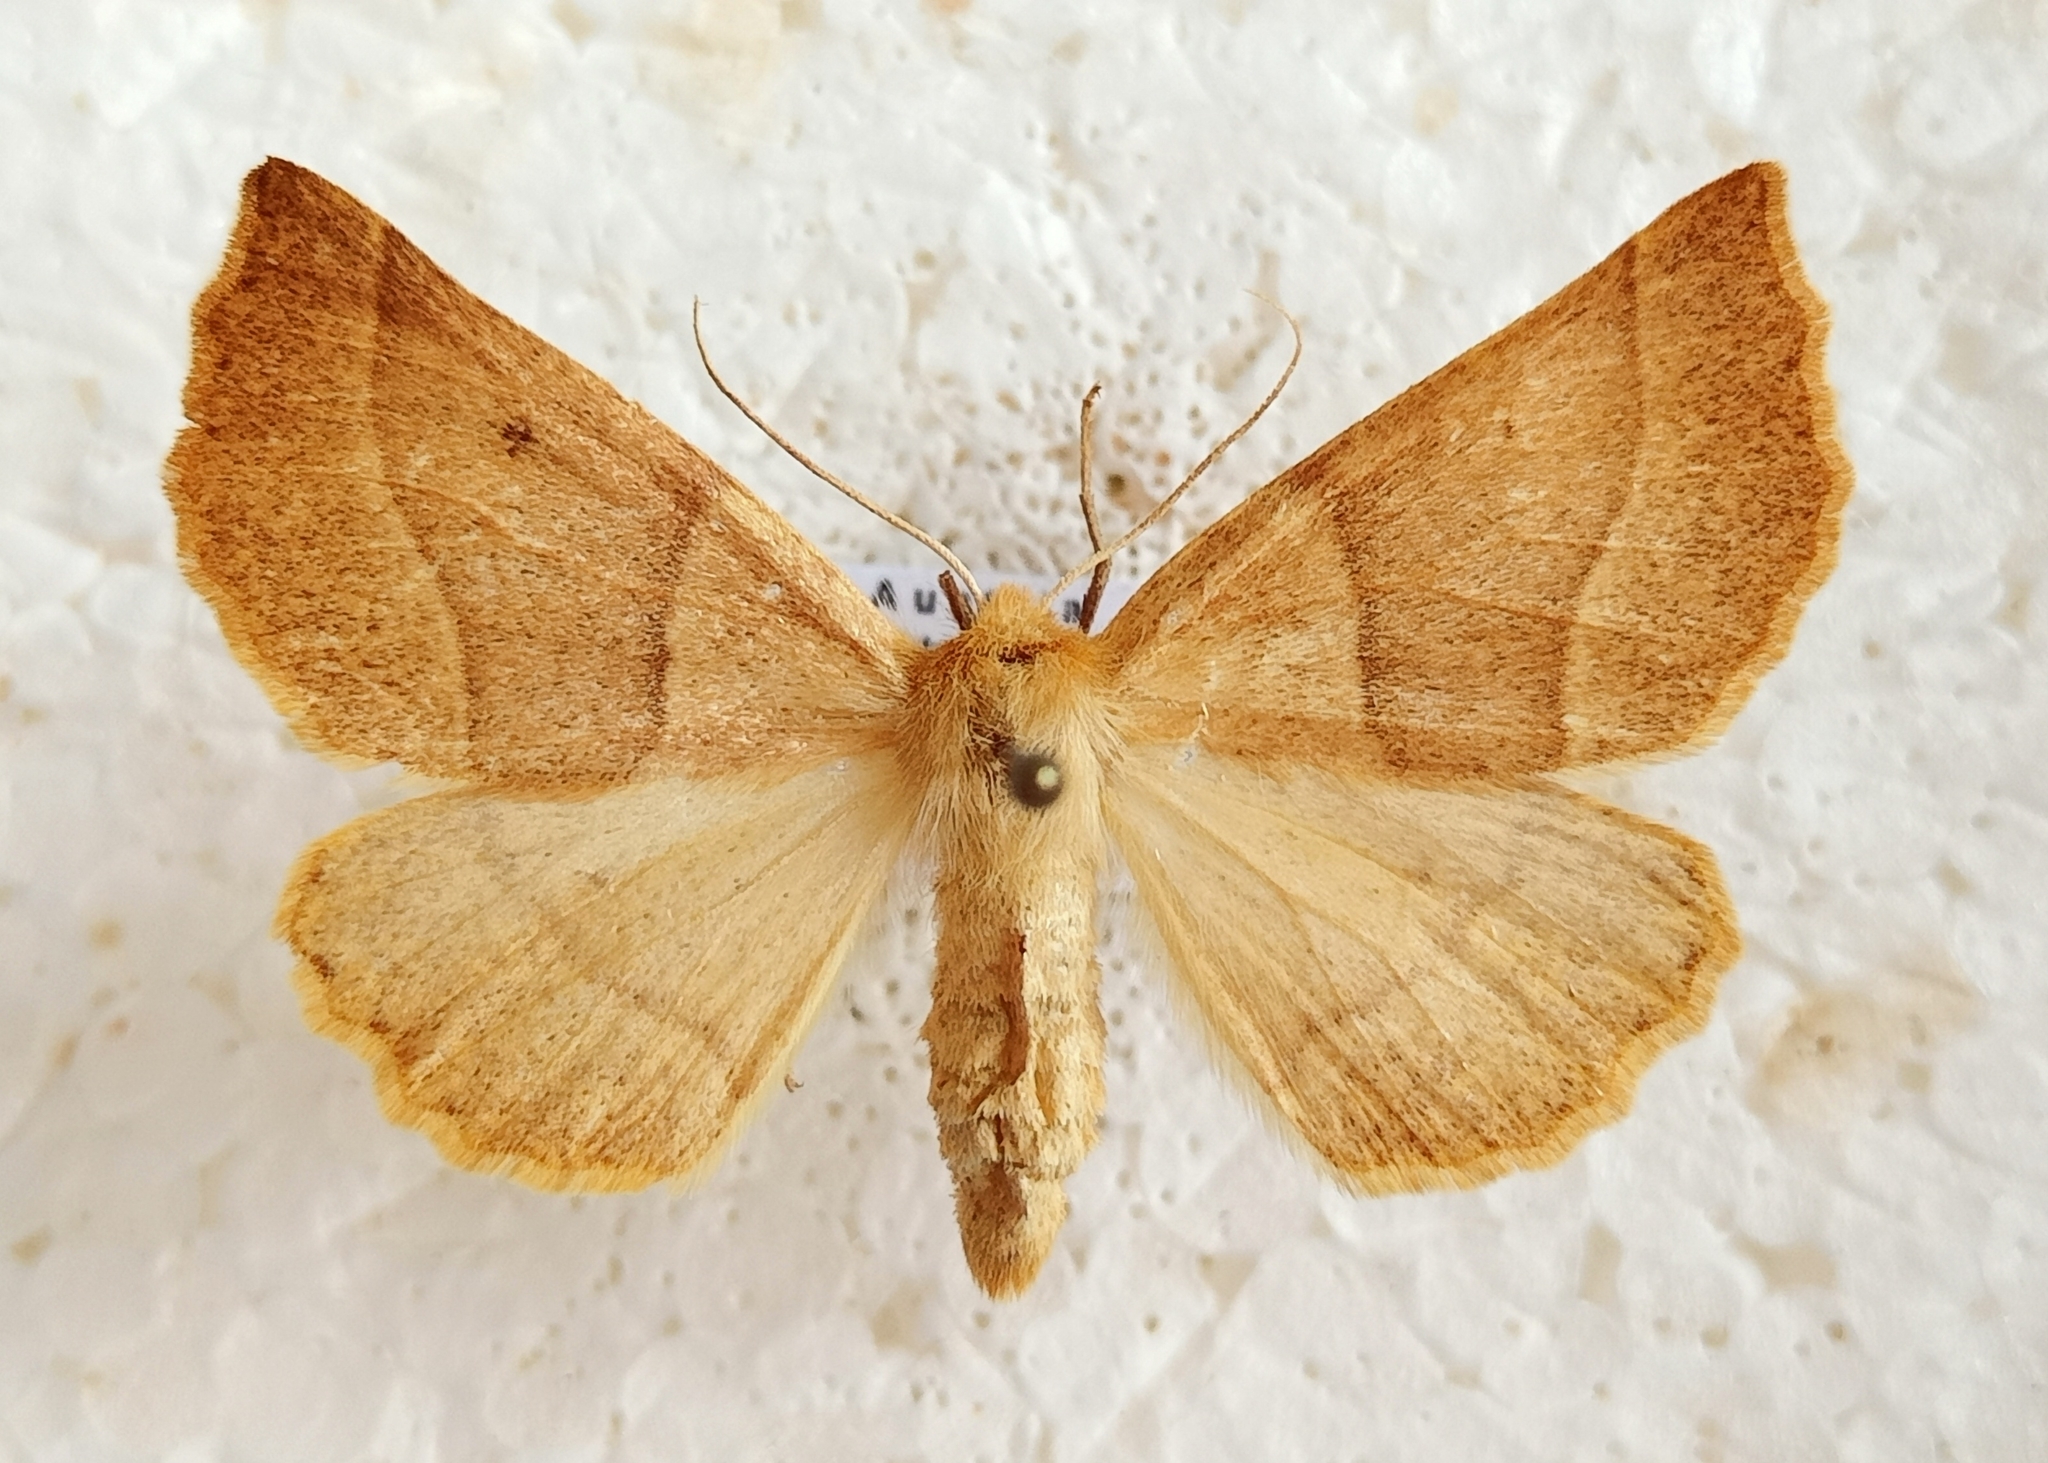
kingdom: Animalia
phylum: Arthropoda
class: Insecta
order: Lepidoptera
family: Geometridae
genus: Crocallis
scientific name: Crocallis elinguaria
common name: Scalloped oak
